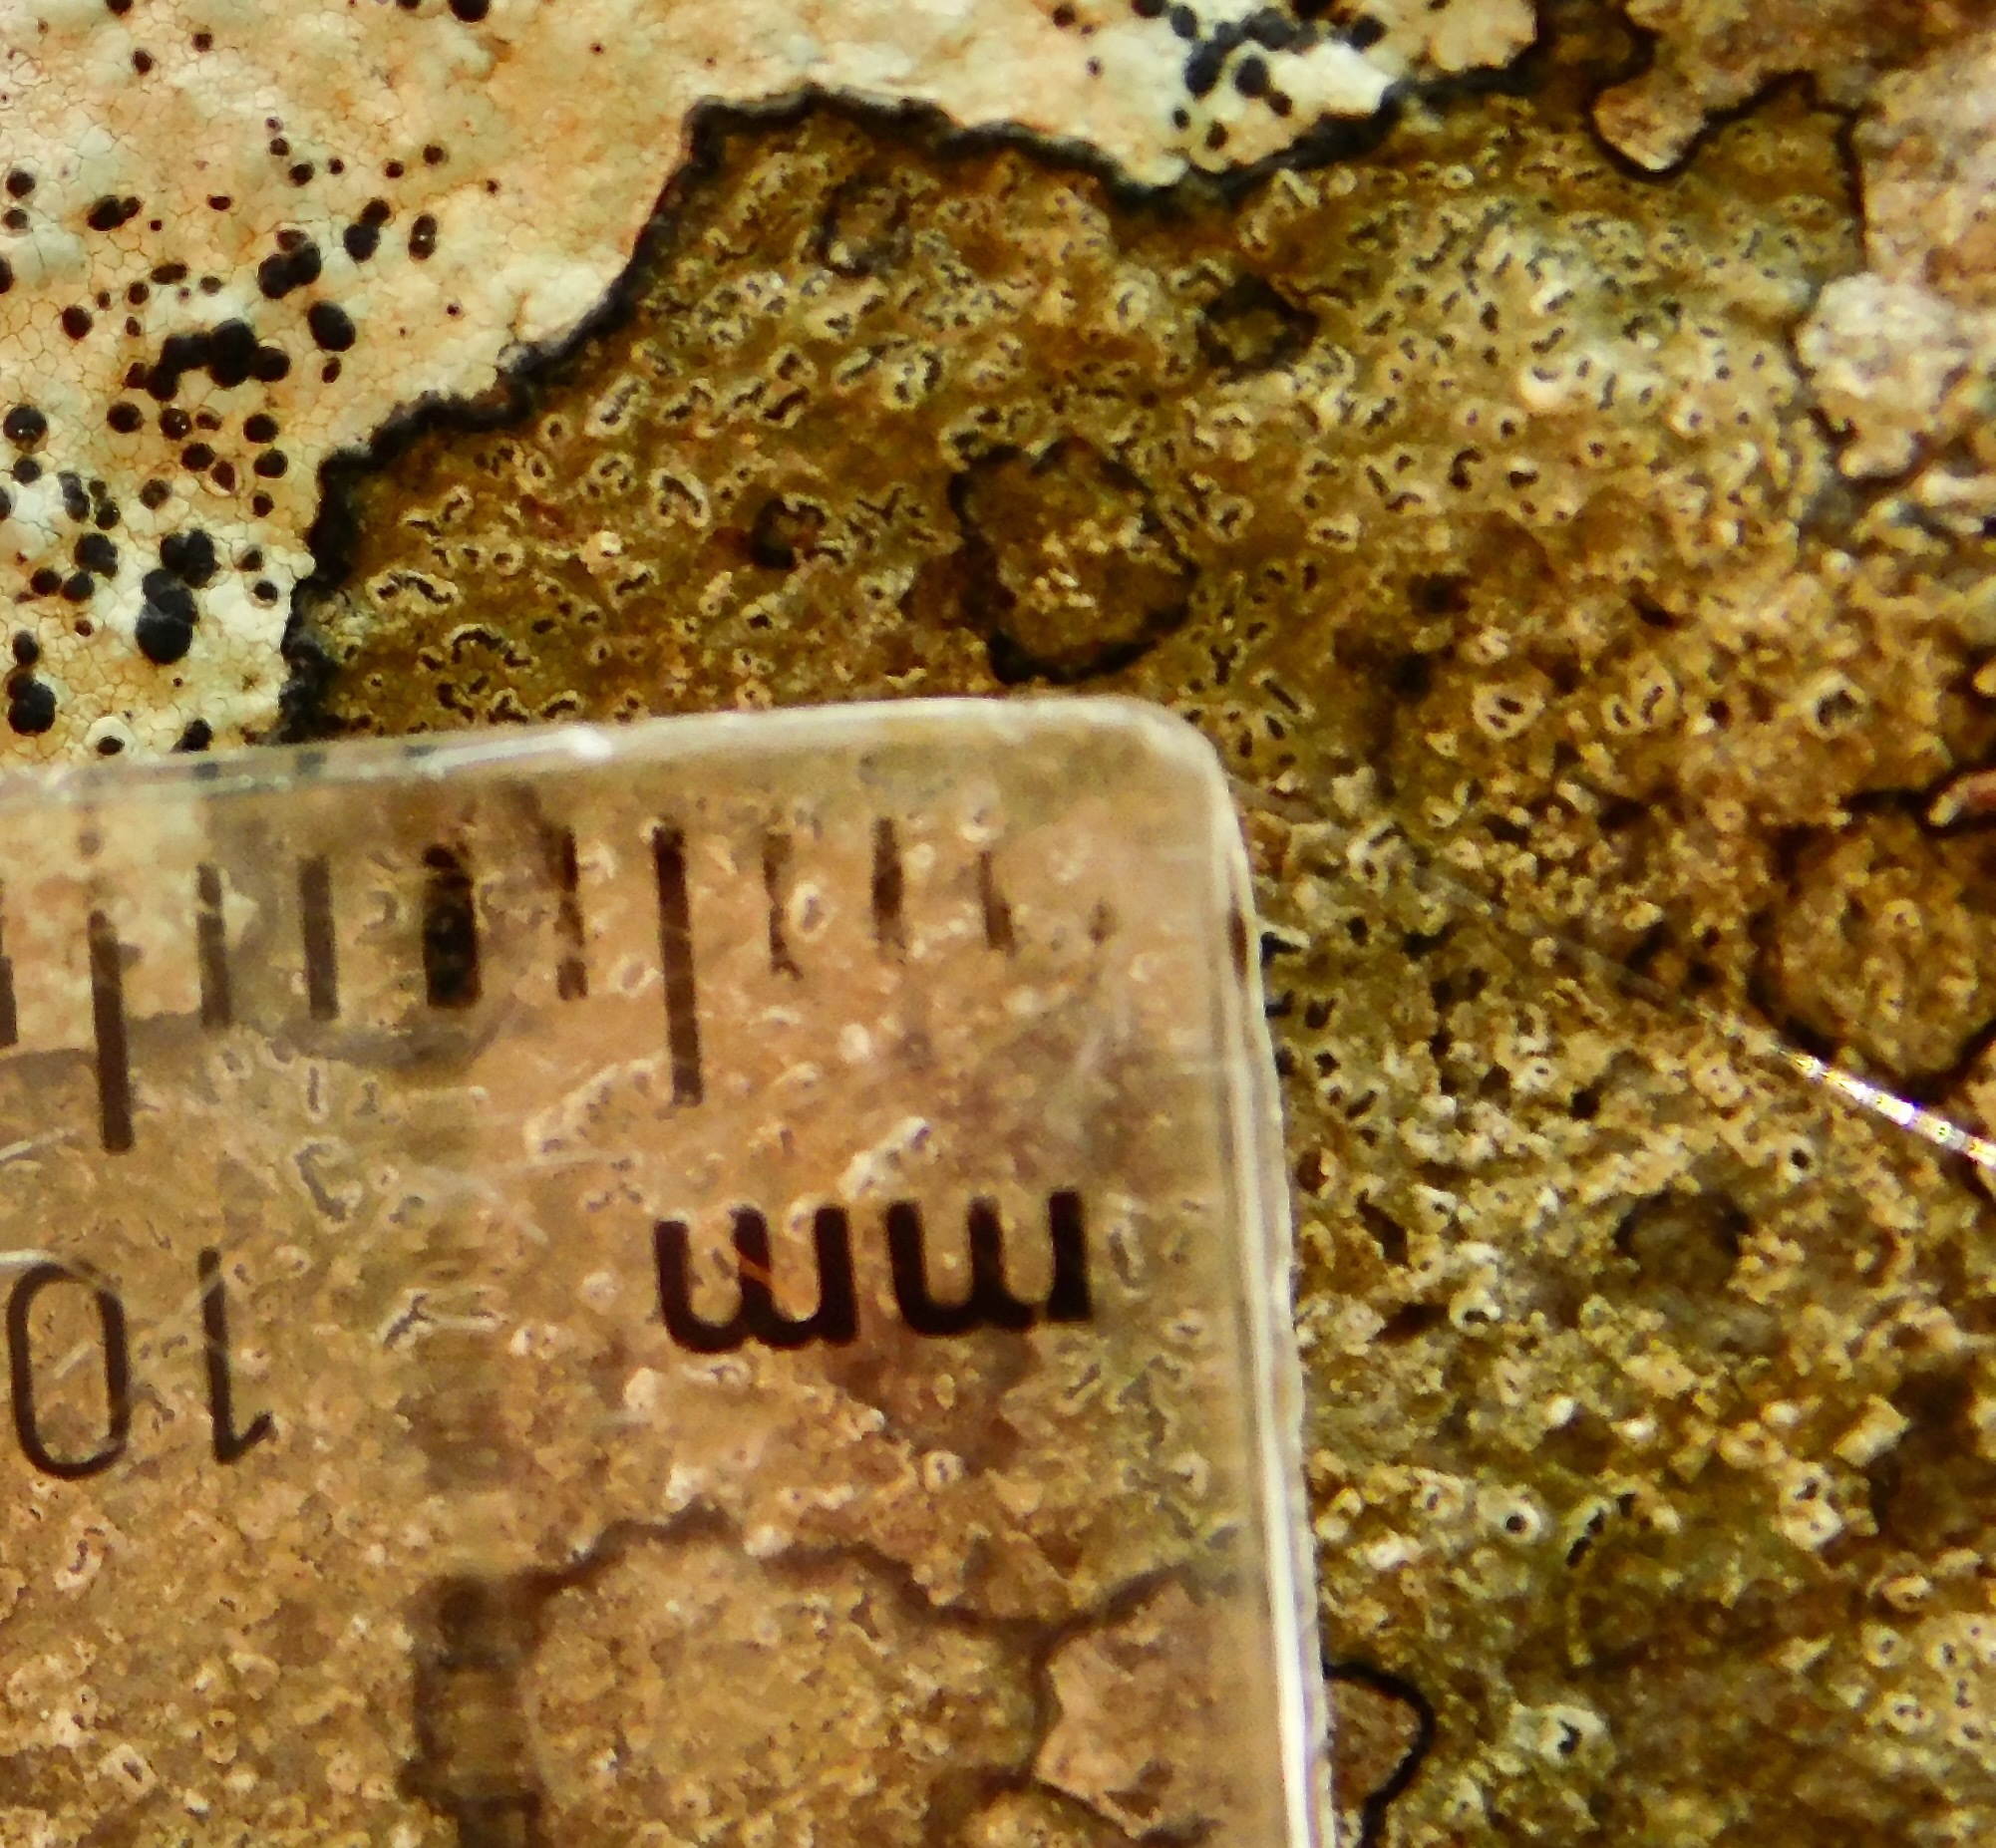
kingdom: Fungi
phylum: Ascomycota
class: Arthoniomycetes
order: Arthoniales
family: Roccellaceae
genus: Enterographa
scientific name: Enterographa hutchinsiae
